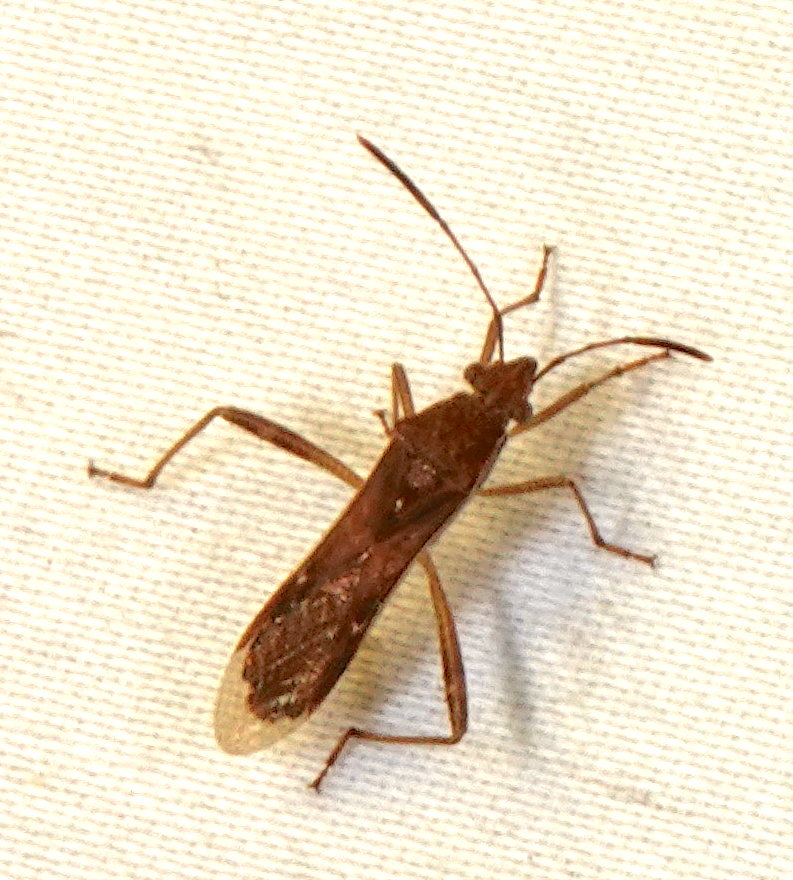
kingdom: Animalia
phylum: Arthropoda
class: Insecta
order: Hemiptera
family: Alydidae
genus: Burtinus
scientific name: Burtinus notatipennis
